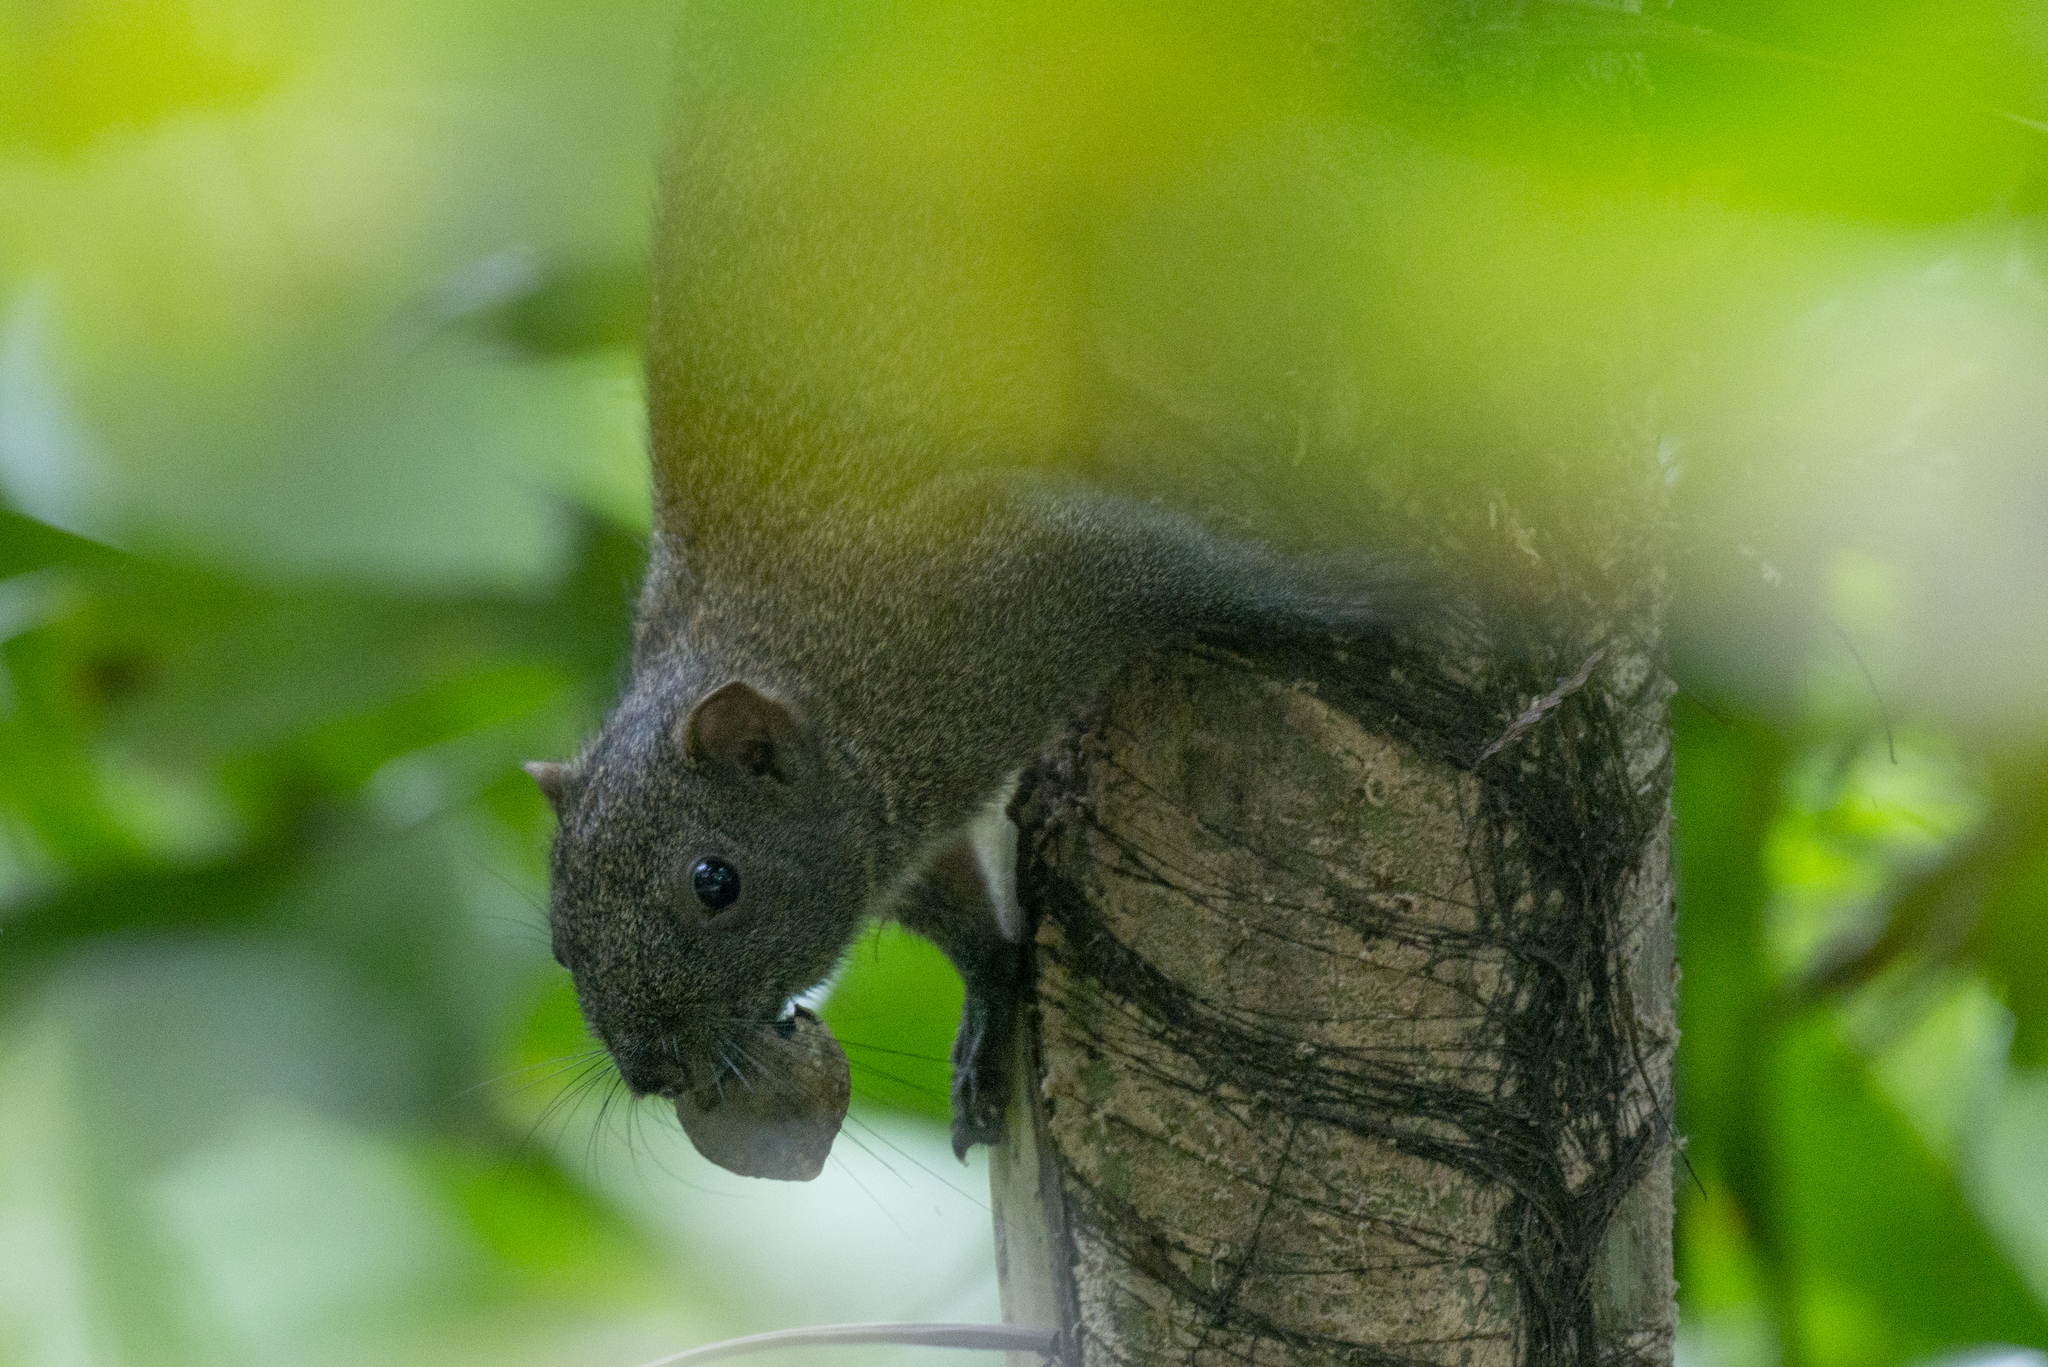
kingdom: Animalia
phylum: Chordata
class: Mammalia
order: Rodentia
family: Sciuridae
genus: Callosciurus
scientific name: Callosciurus erythraeus
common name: Pallas's squirrel
